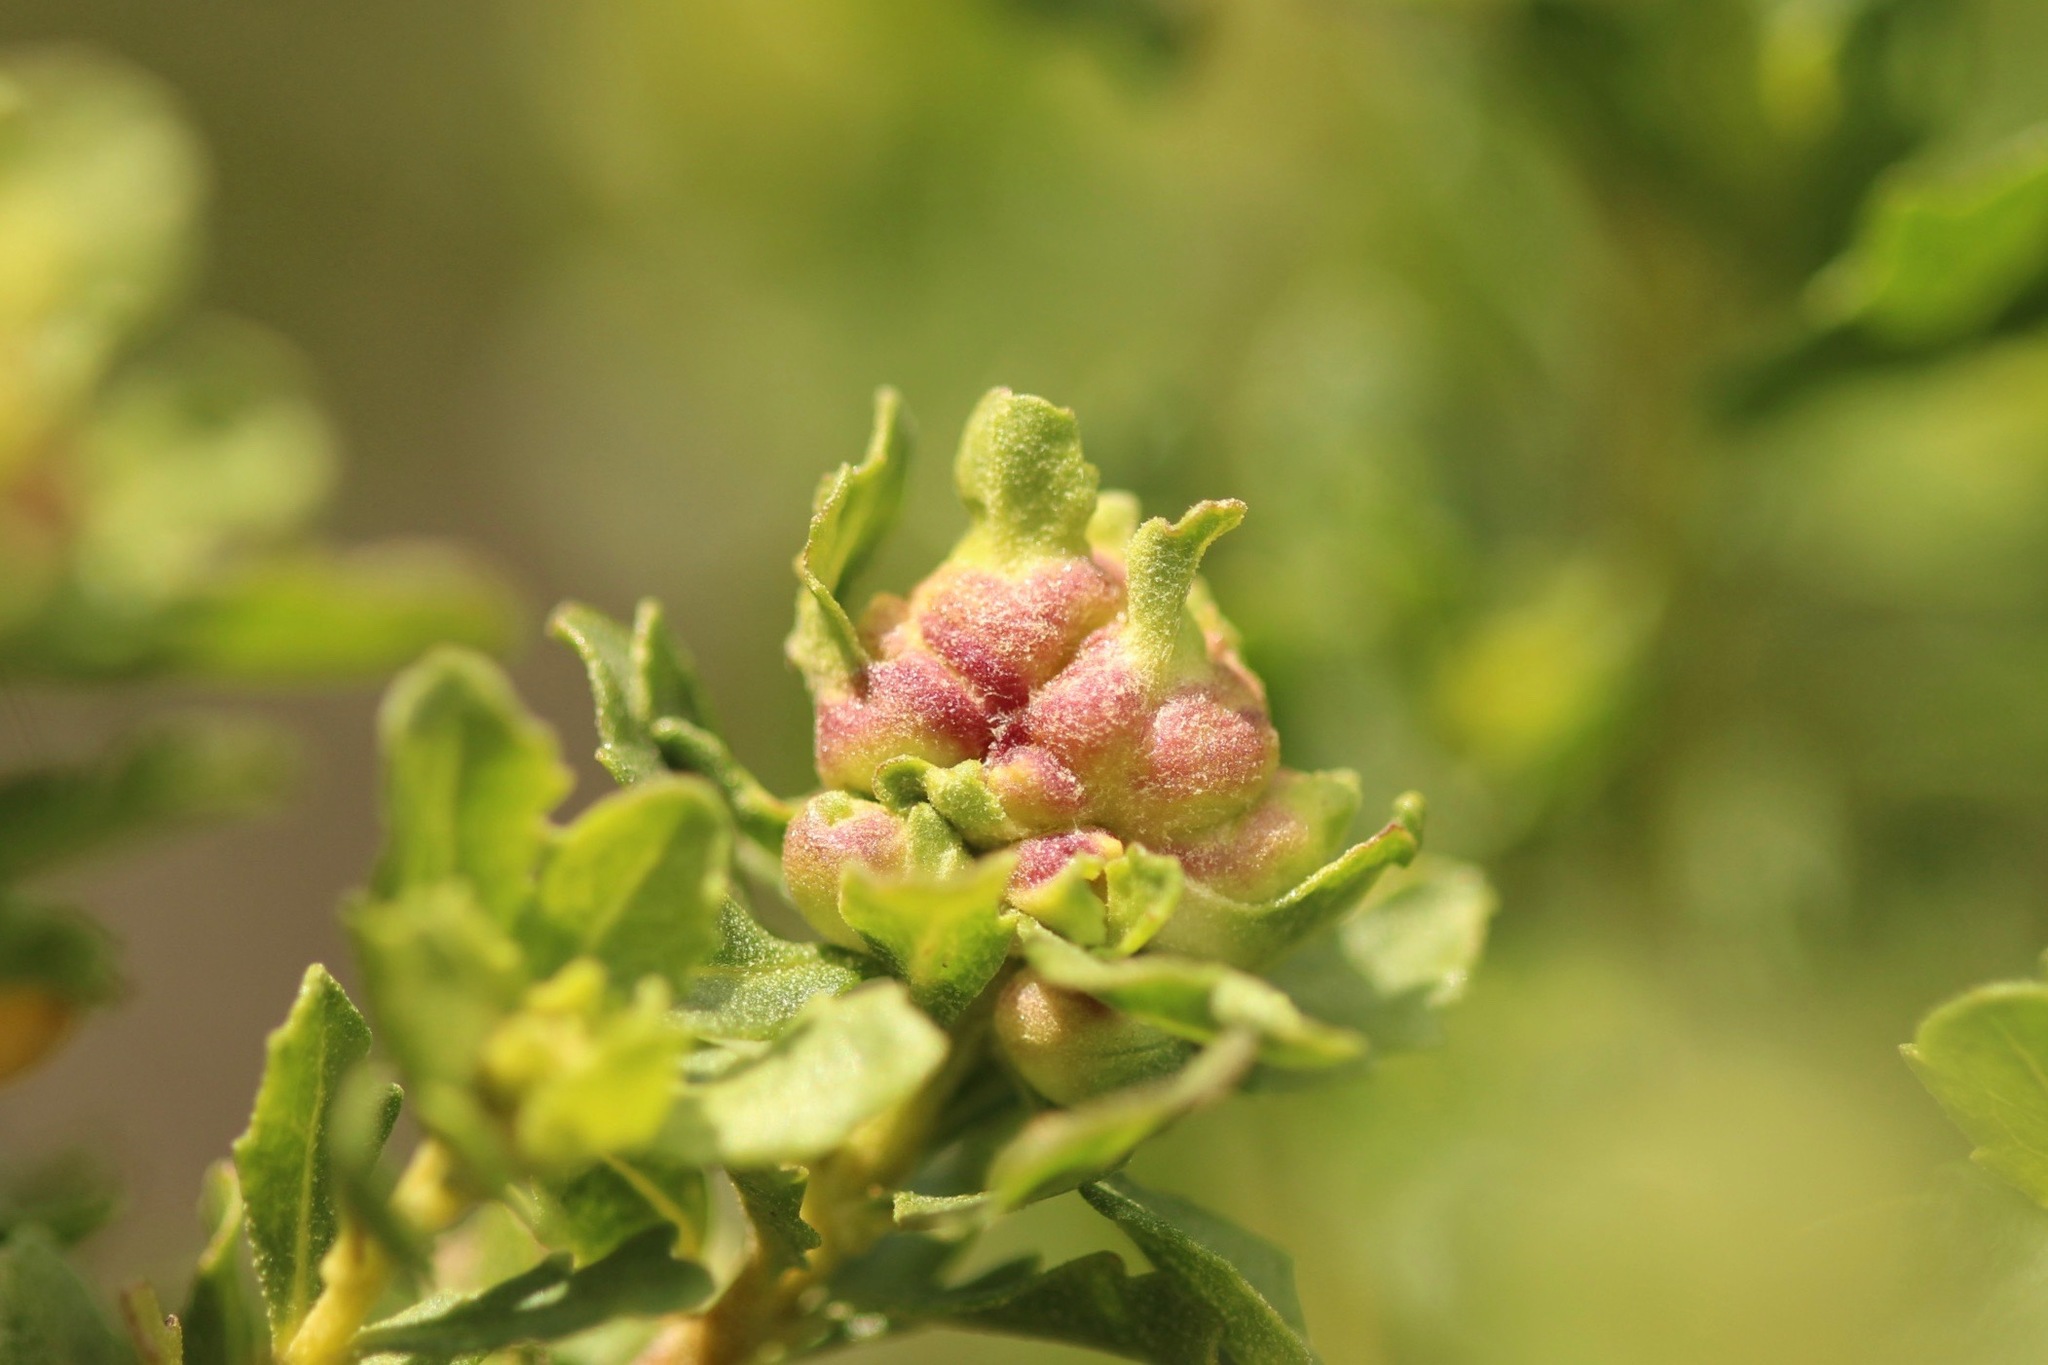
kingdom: Animalia
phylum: Arthropoda
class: Insecta
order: Diptera
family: Cecidomyiidae
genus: Rhopalomyia
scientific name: Rhopalomyia californica
